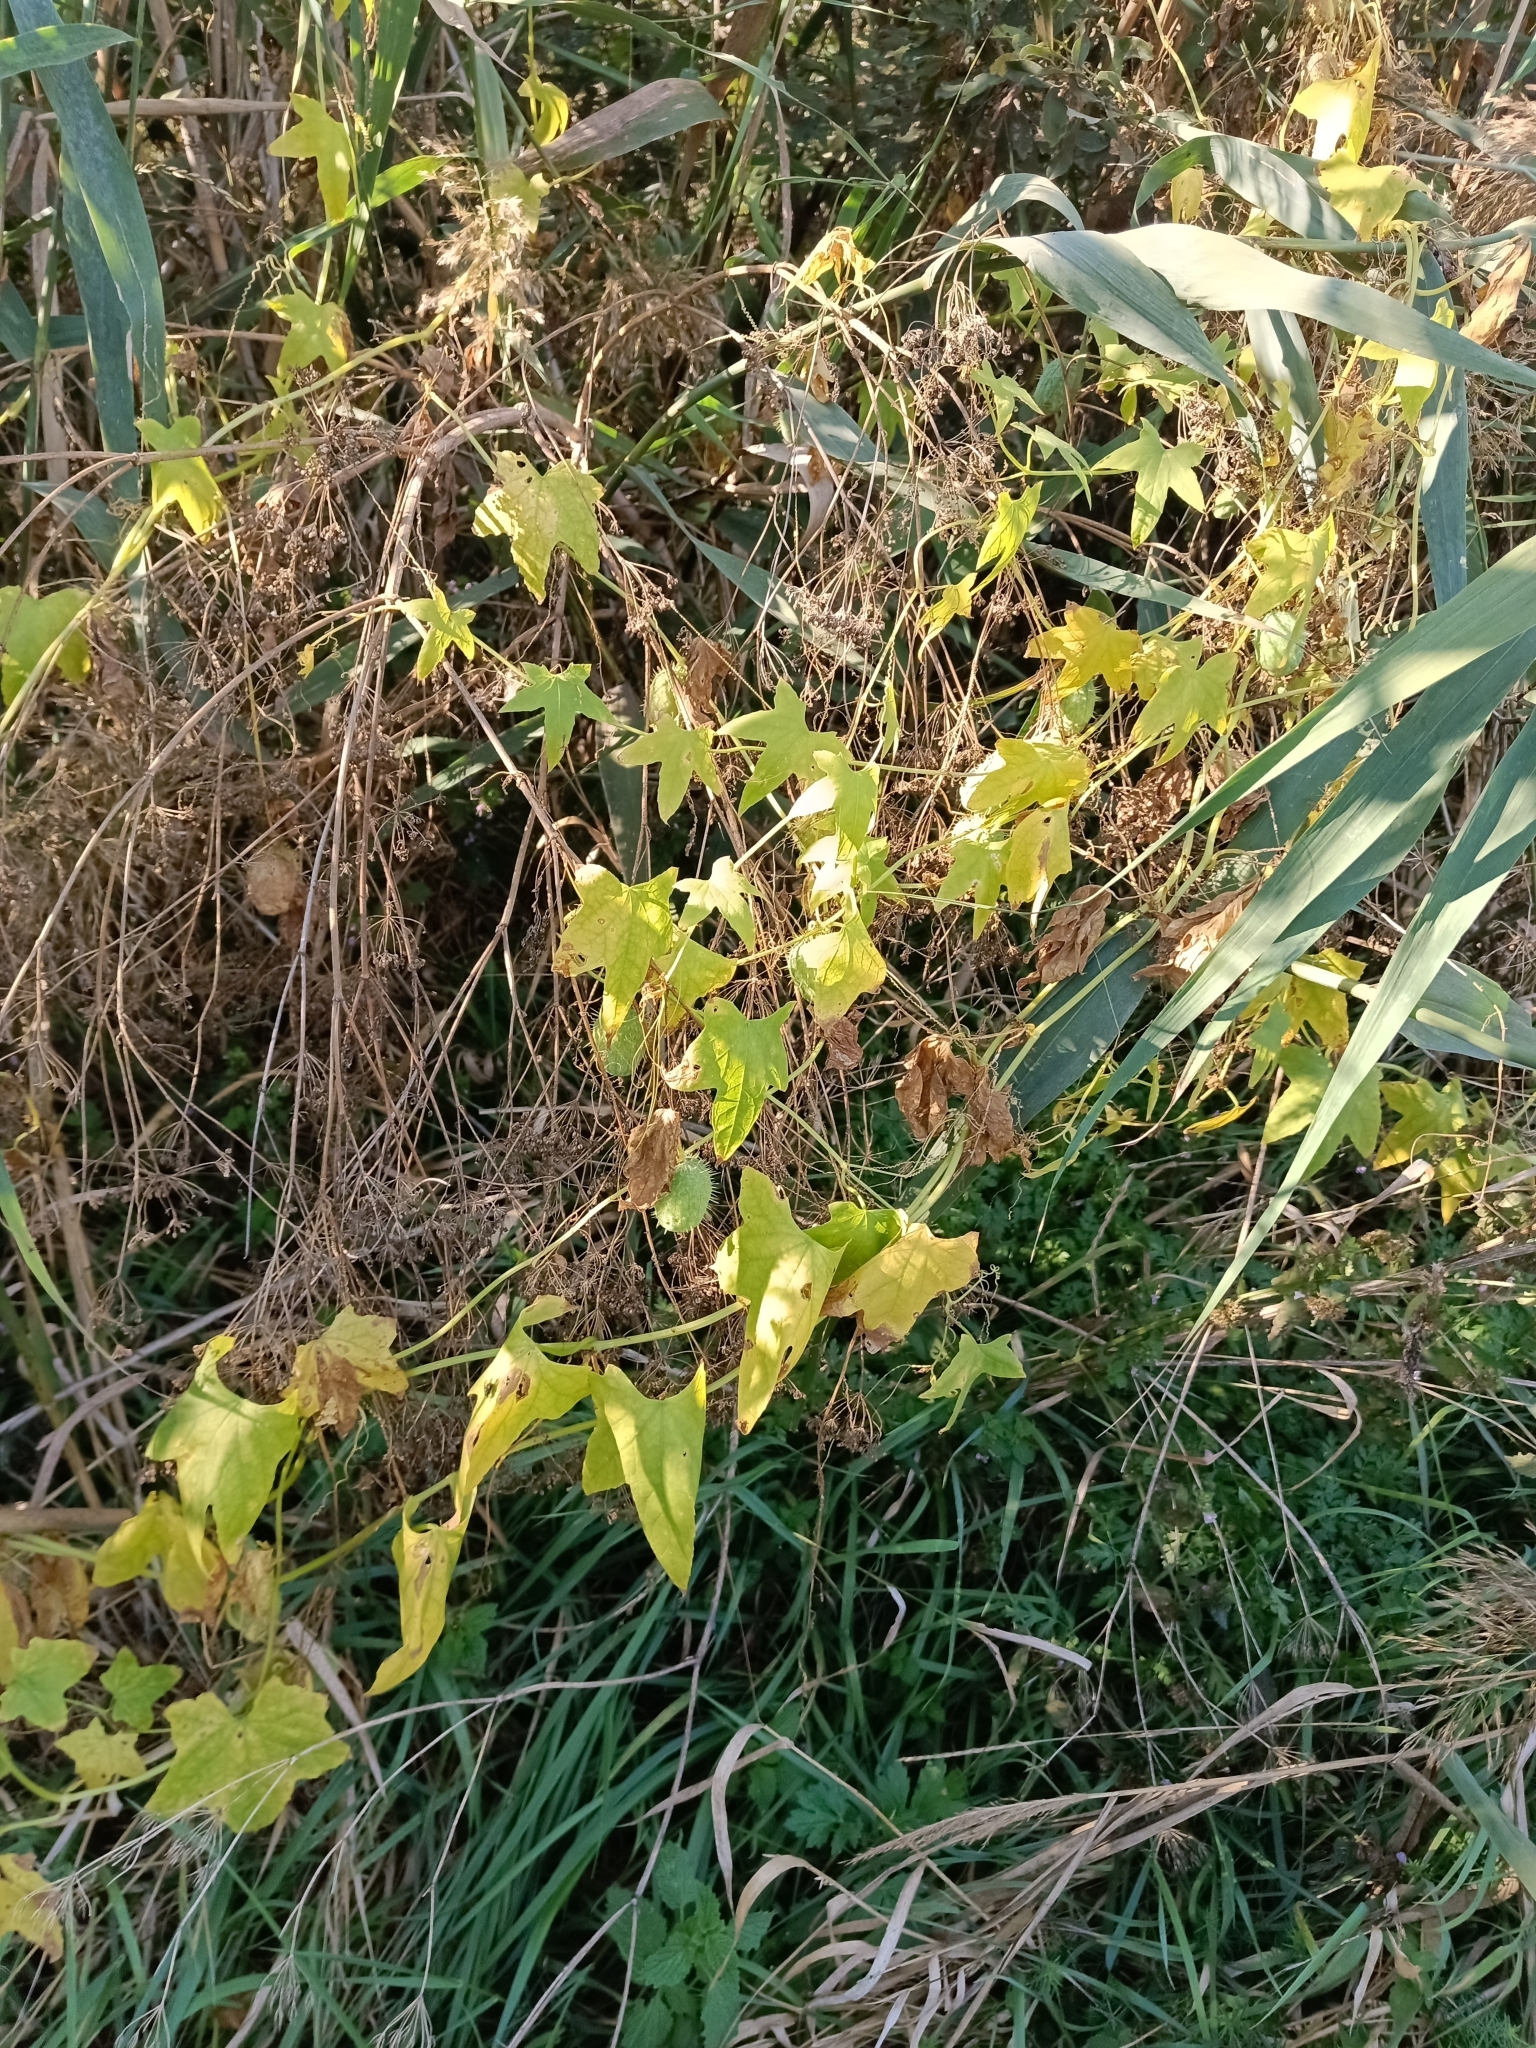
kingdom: Plantae
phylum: Tracheophyta
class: Magnoliopsida
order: Cucurbitales
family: Cucurbitaceae
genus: Echinocystis
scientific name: Echinocystis lobata
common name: Wild cucumber
